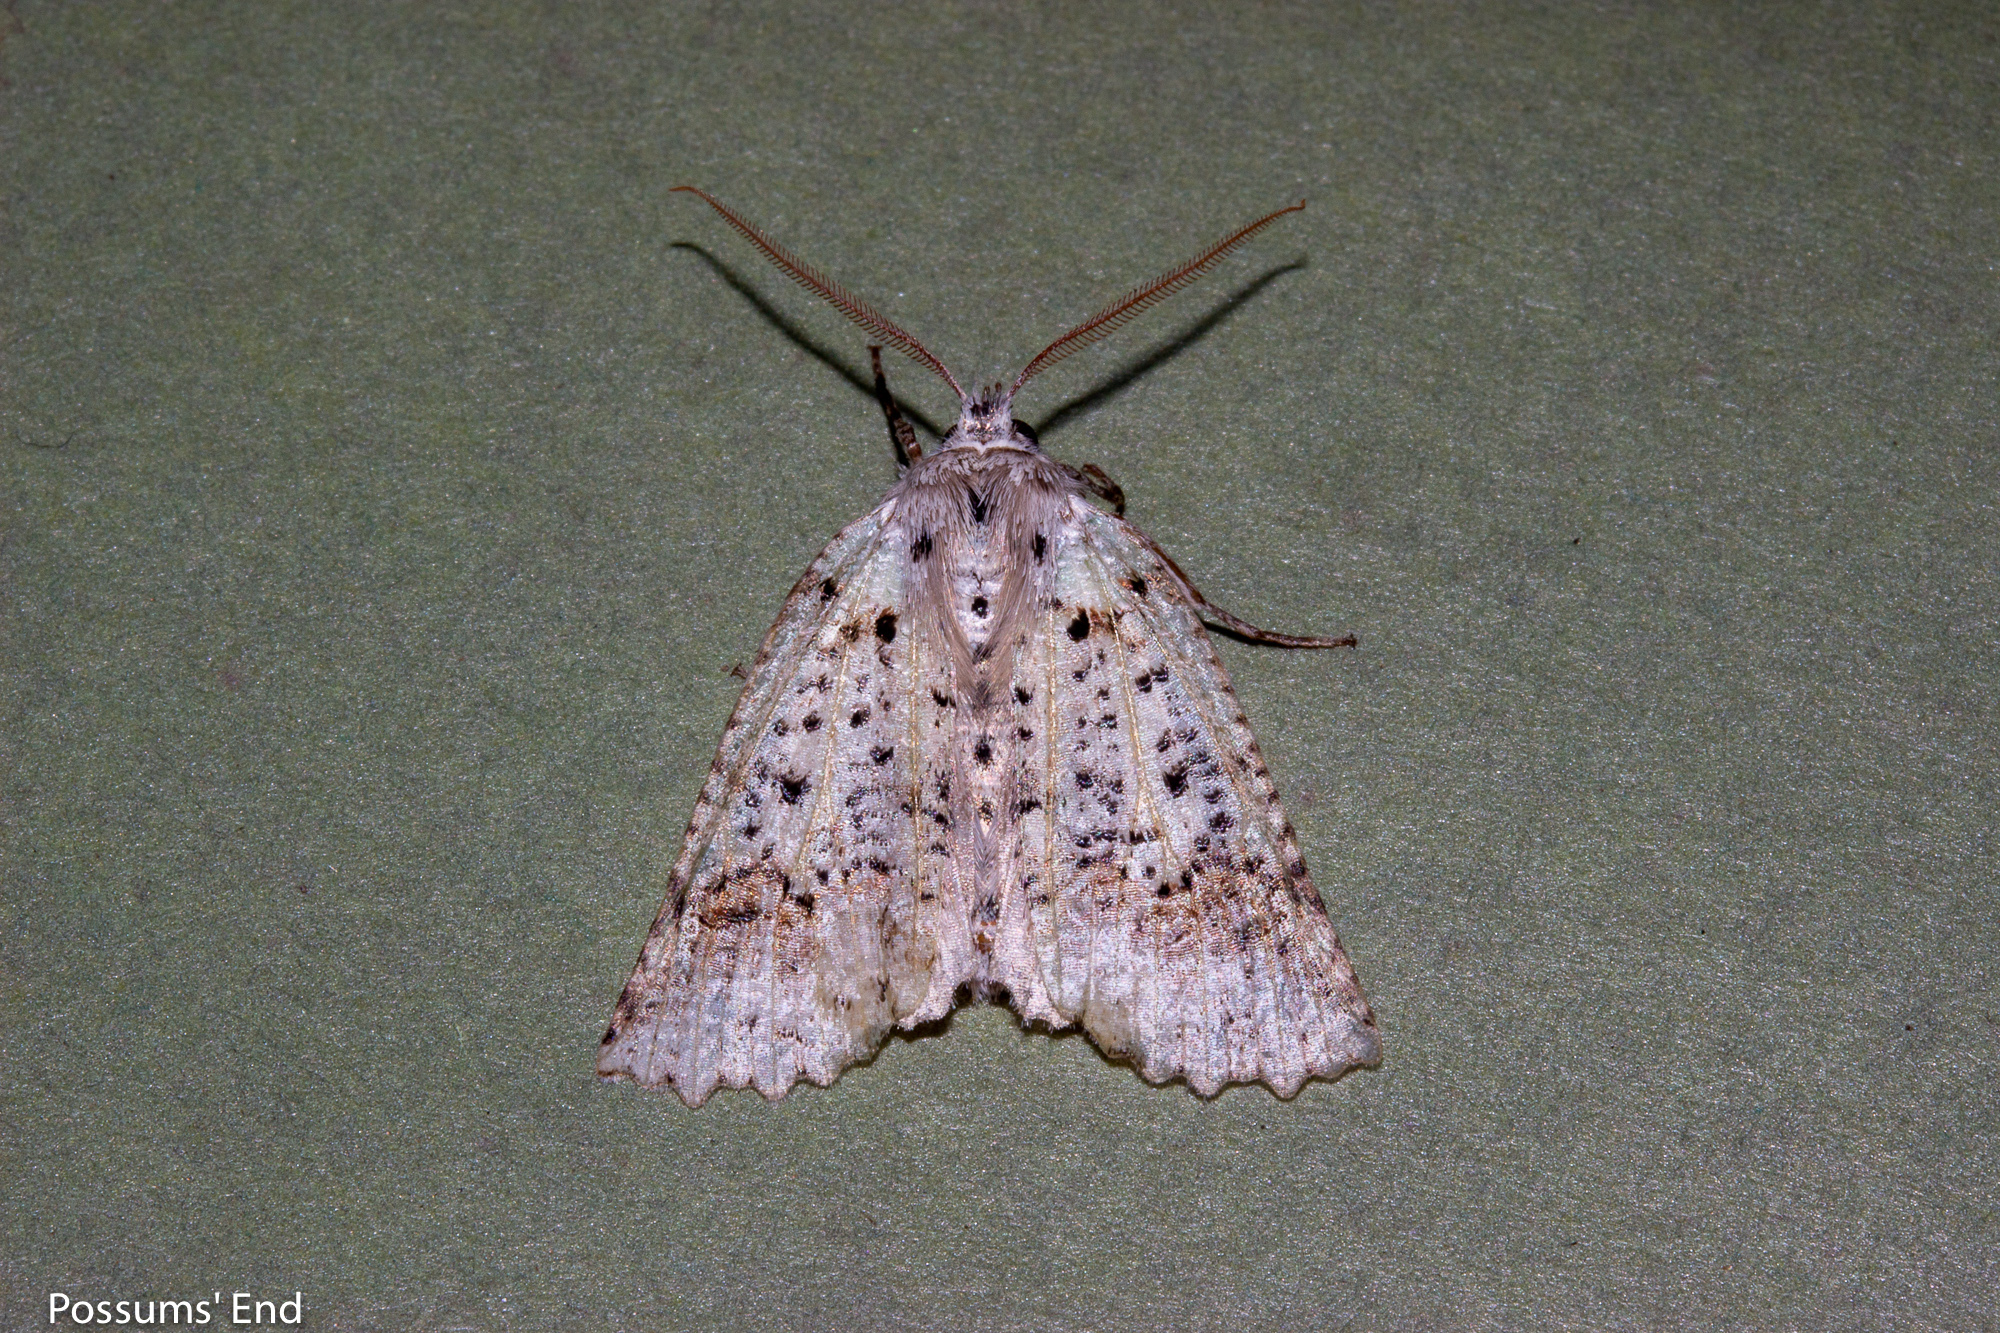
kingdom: Animalia
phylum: Arthropoda
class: Insecta
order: Lepidoptera
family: Geometridae
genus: Declana
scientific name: Declana floccosa
